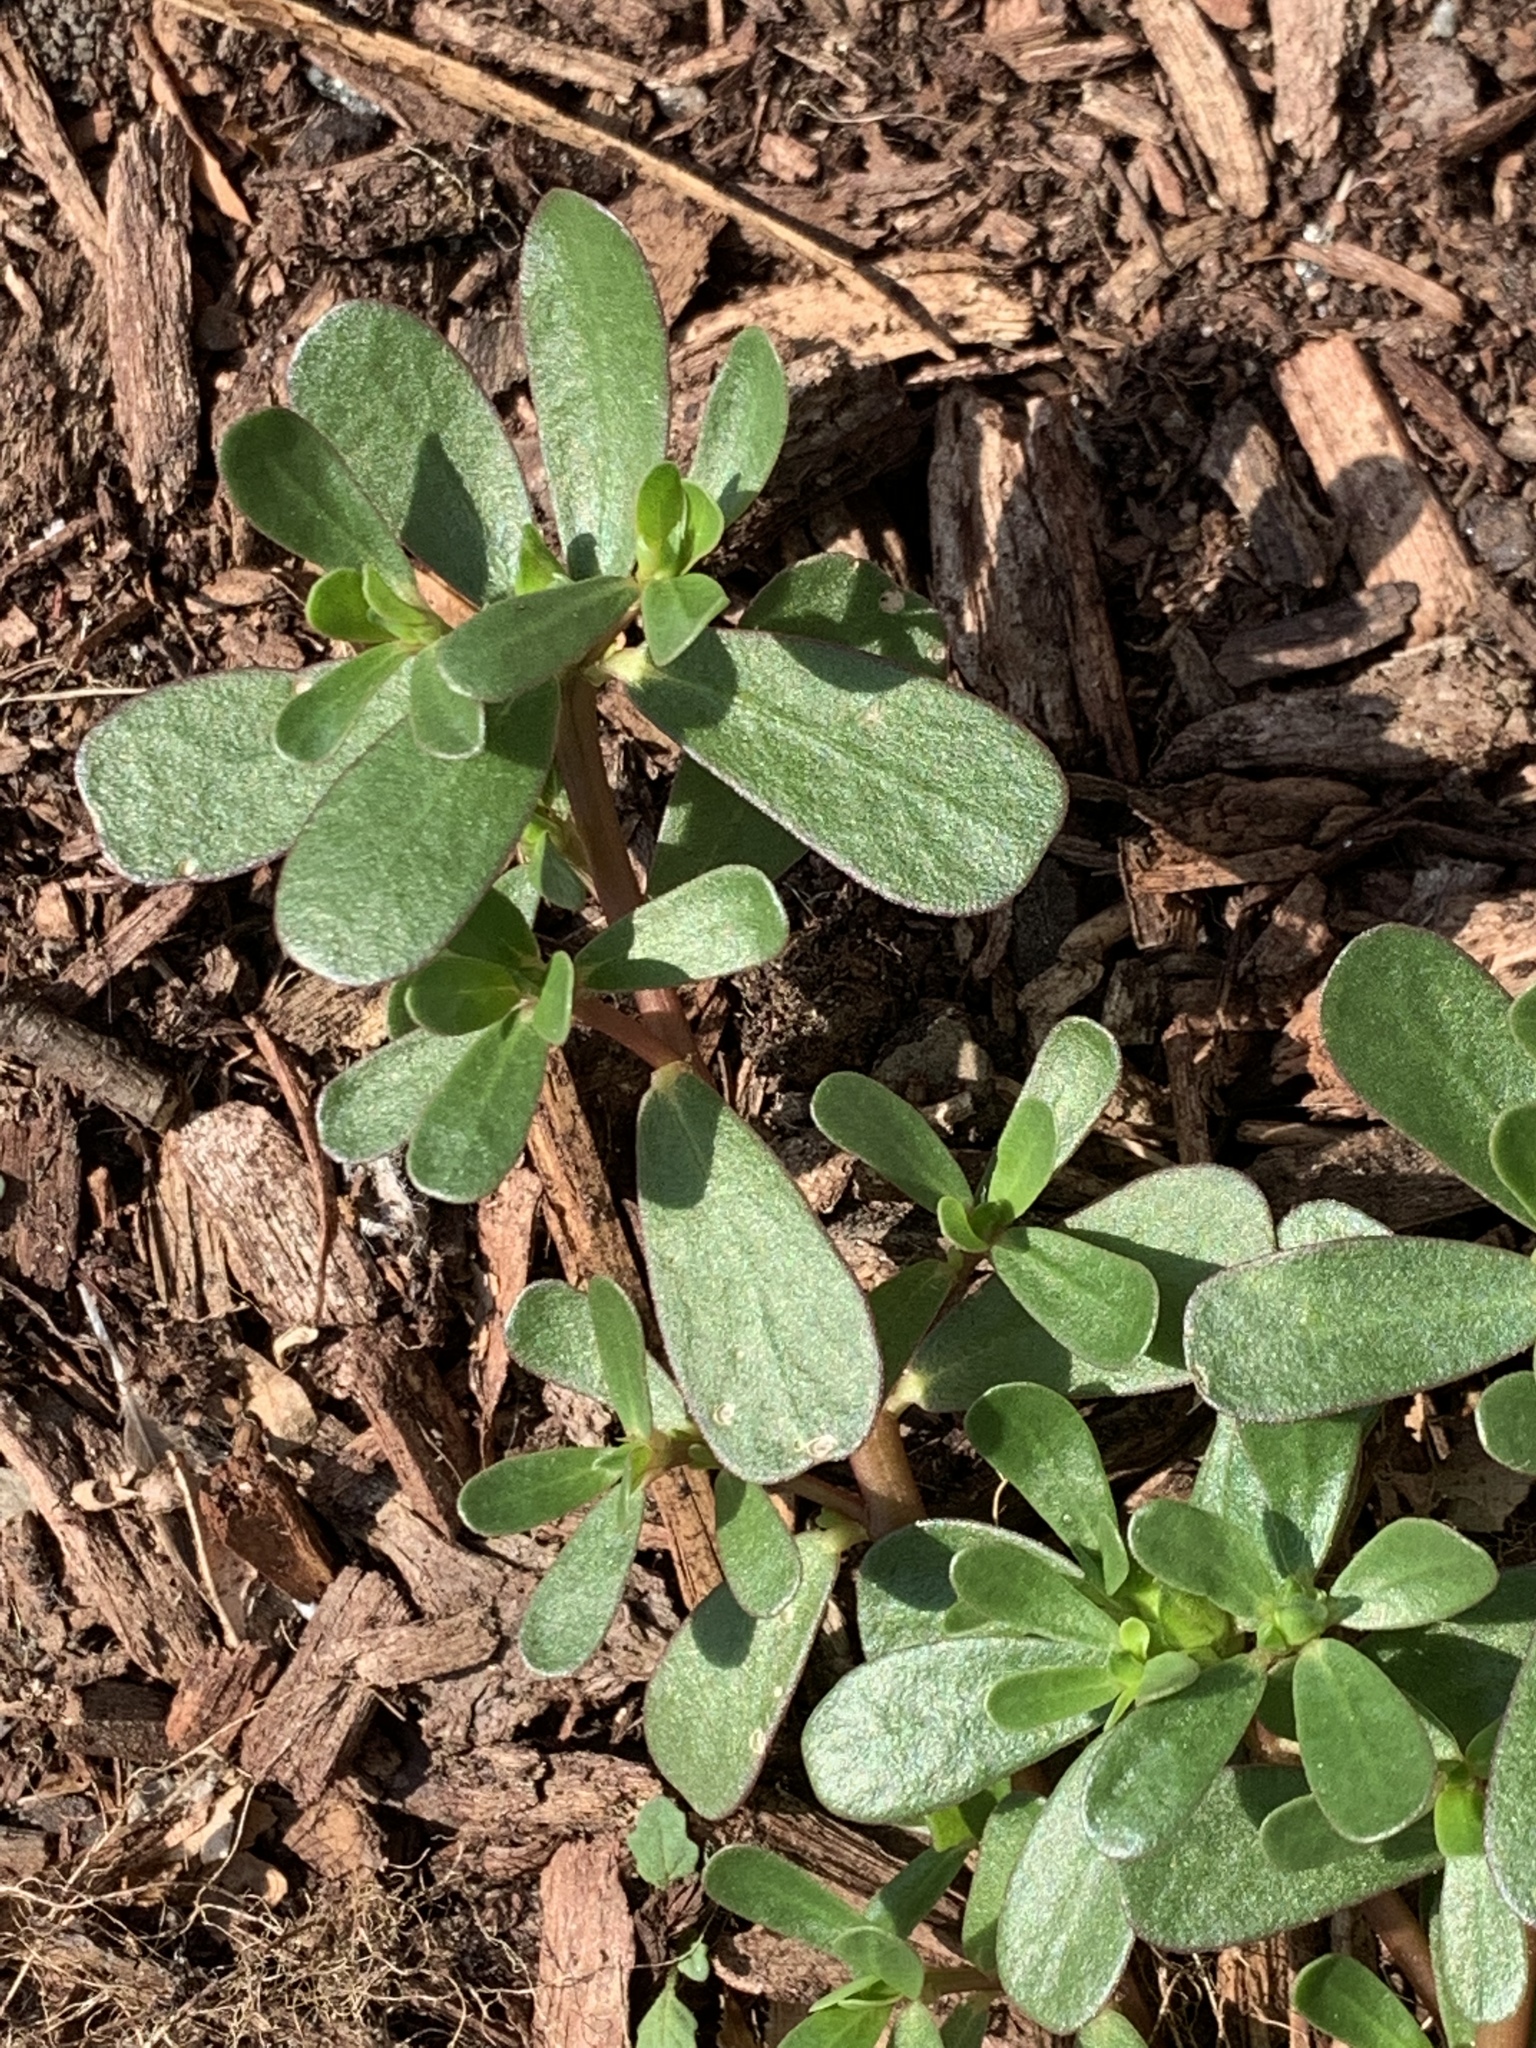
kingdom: Plantae
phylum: Tracheophyta
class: Magnoliopsida
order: Caryophyllales
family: Portulacaceae
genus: Portulaca
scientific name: Portulaca oleracea
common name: Common purslane
